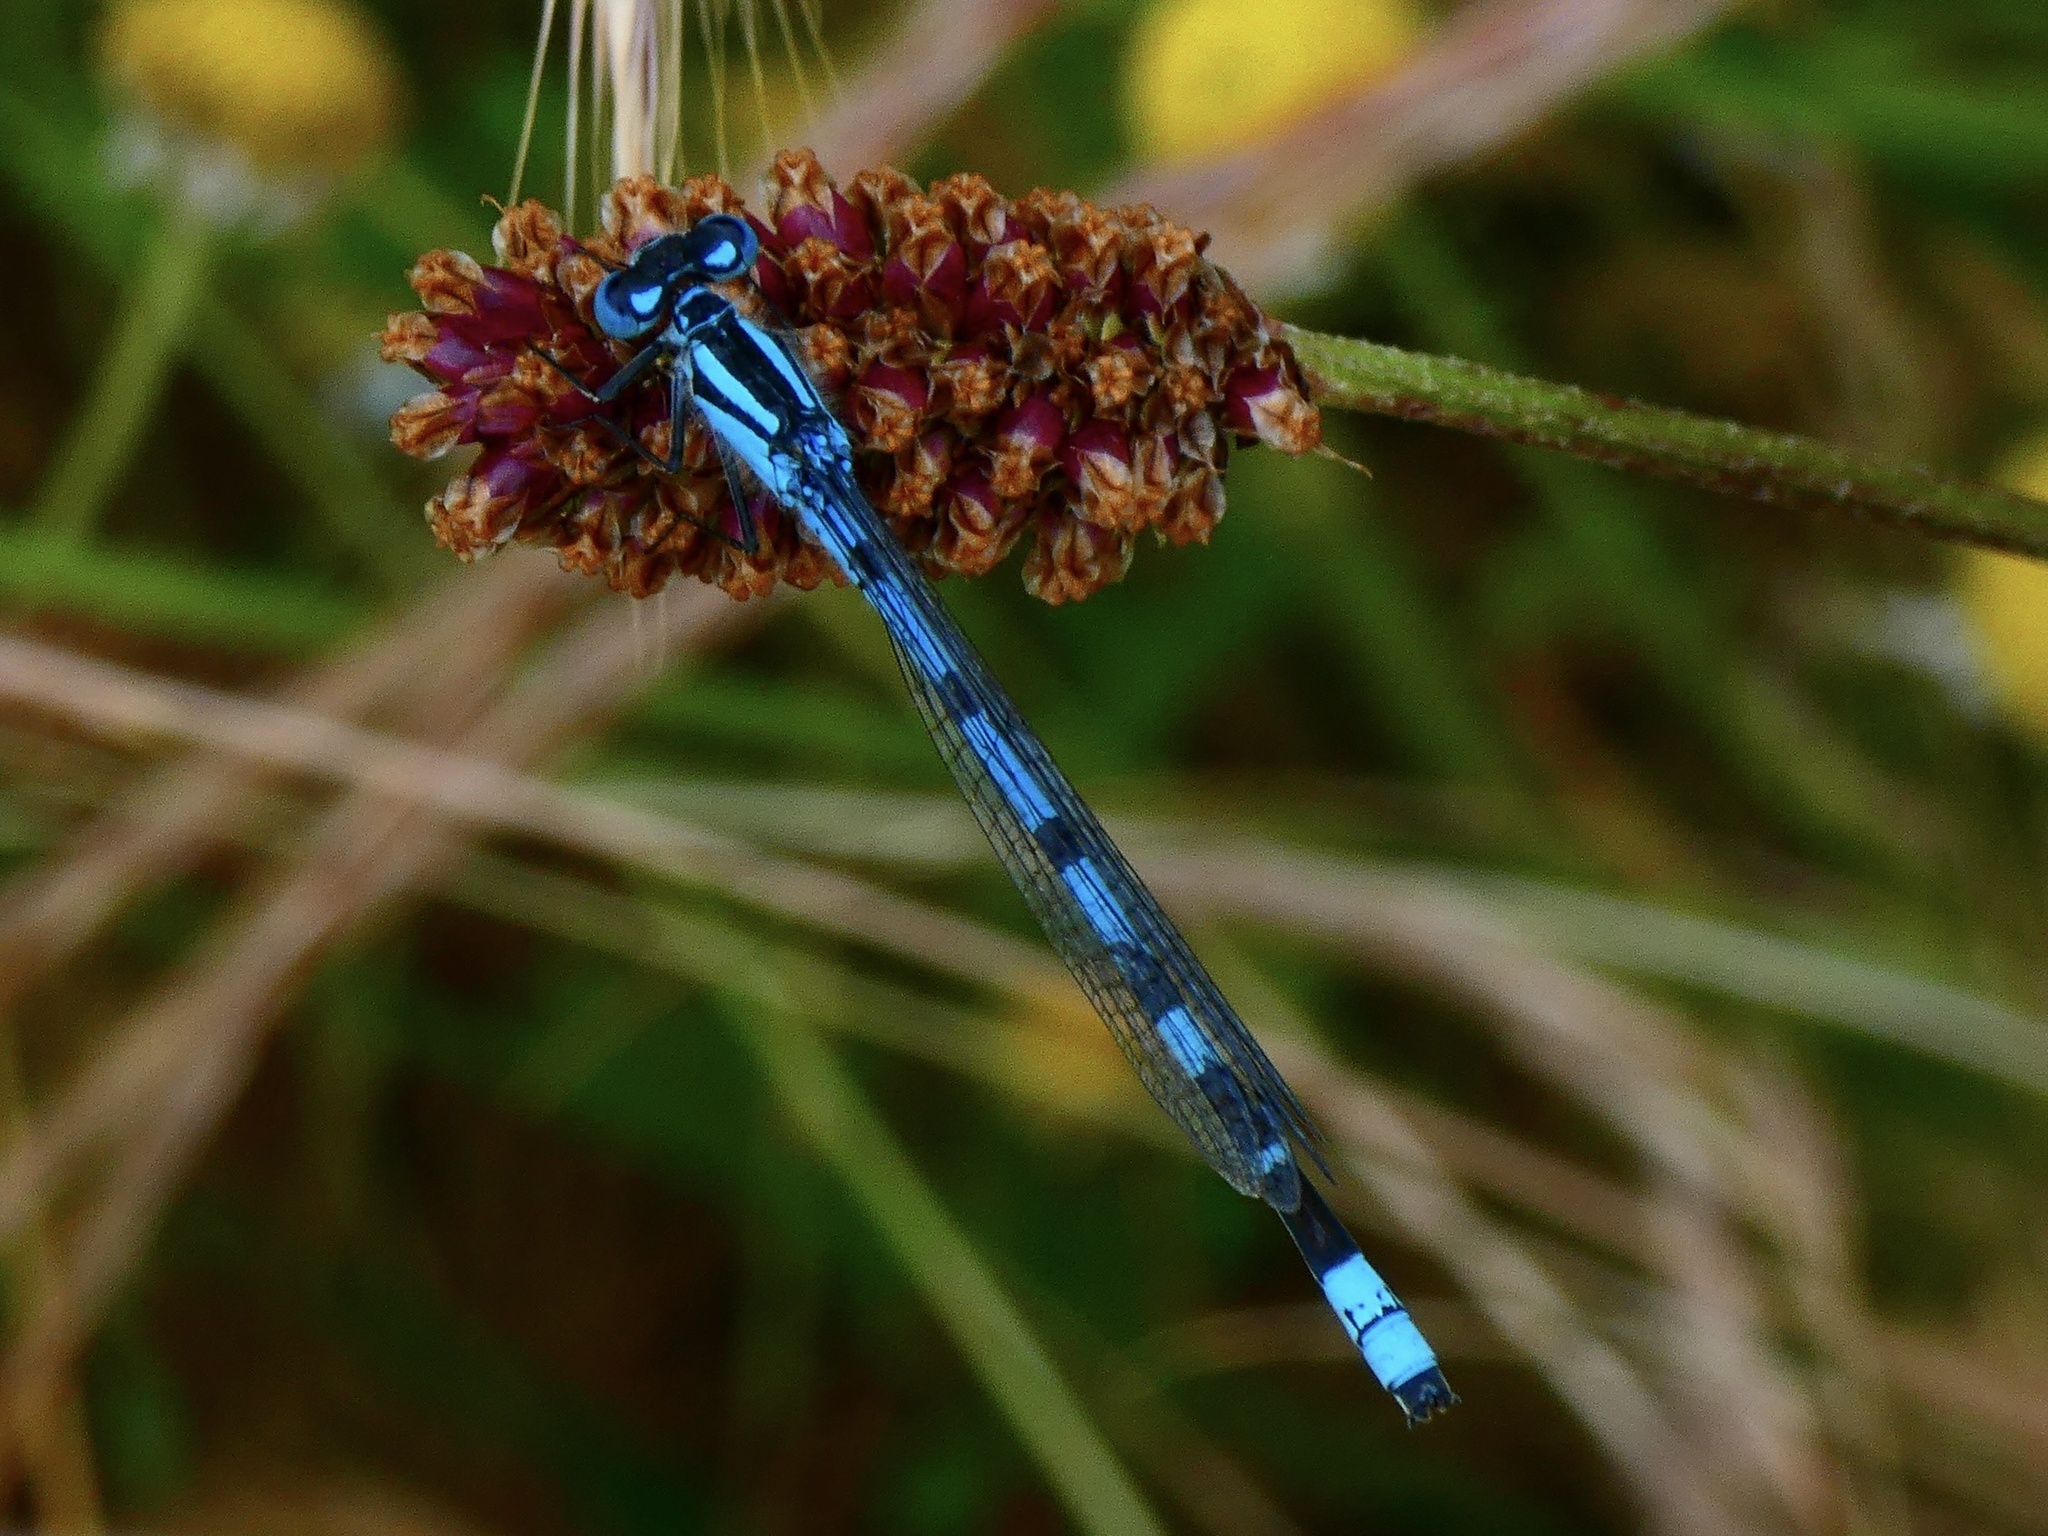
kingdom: Animalia
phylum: Arthropoda
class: Insecta
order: Odonata
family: Coenagrionidae
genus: Enallagma
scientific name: Enallagma cyathigerum
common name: Common blue damselfly
